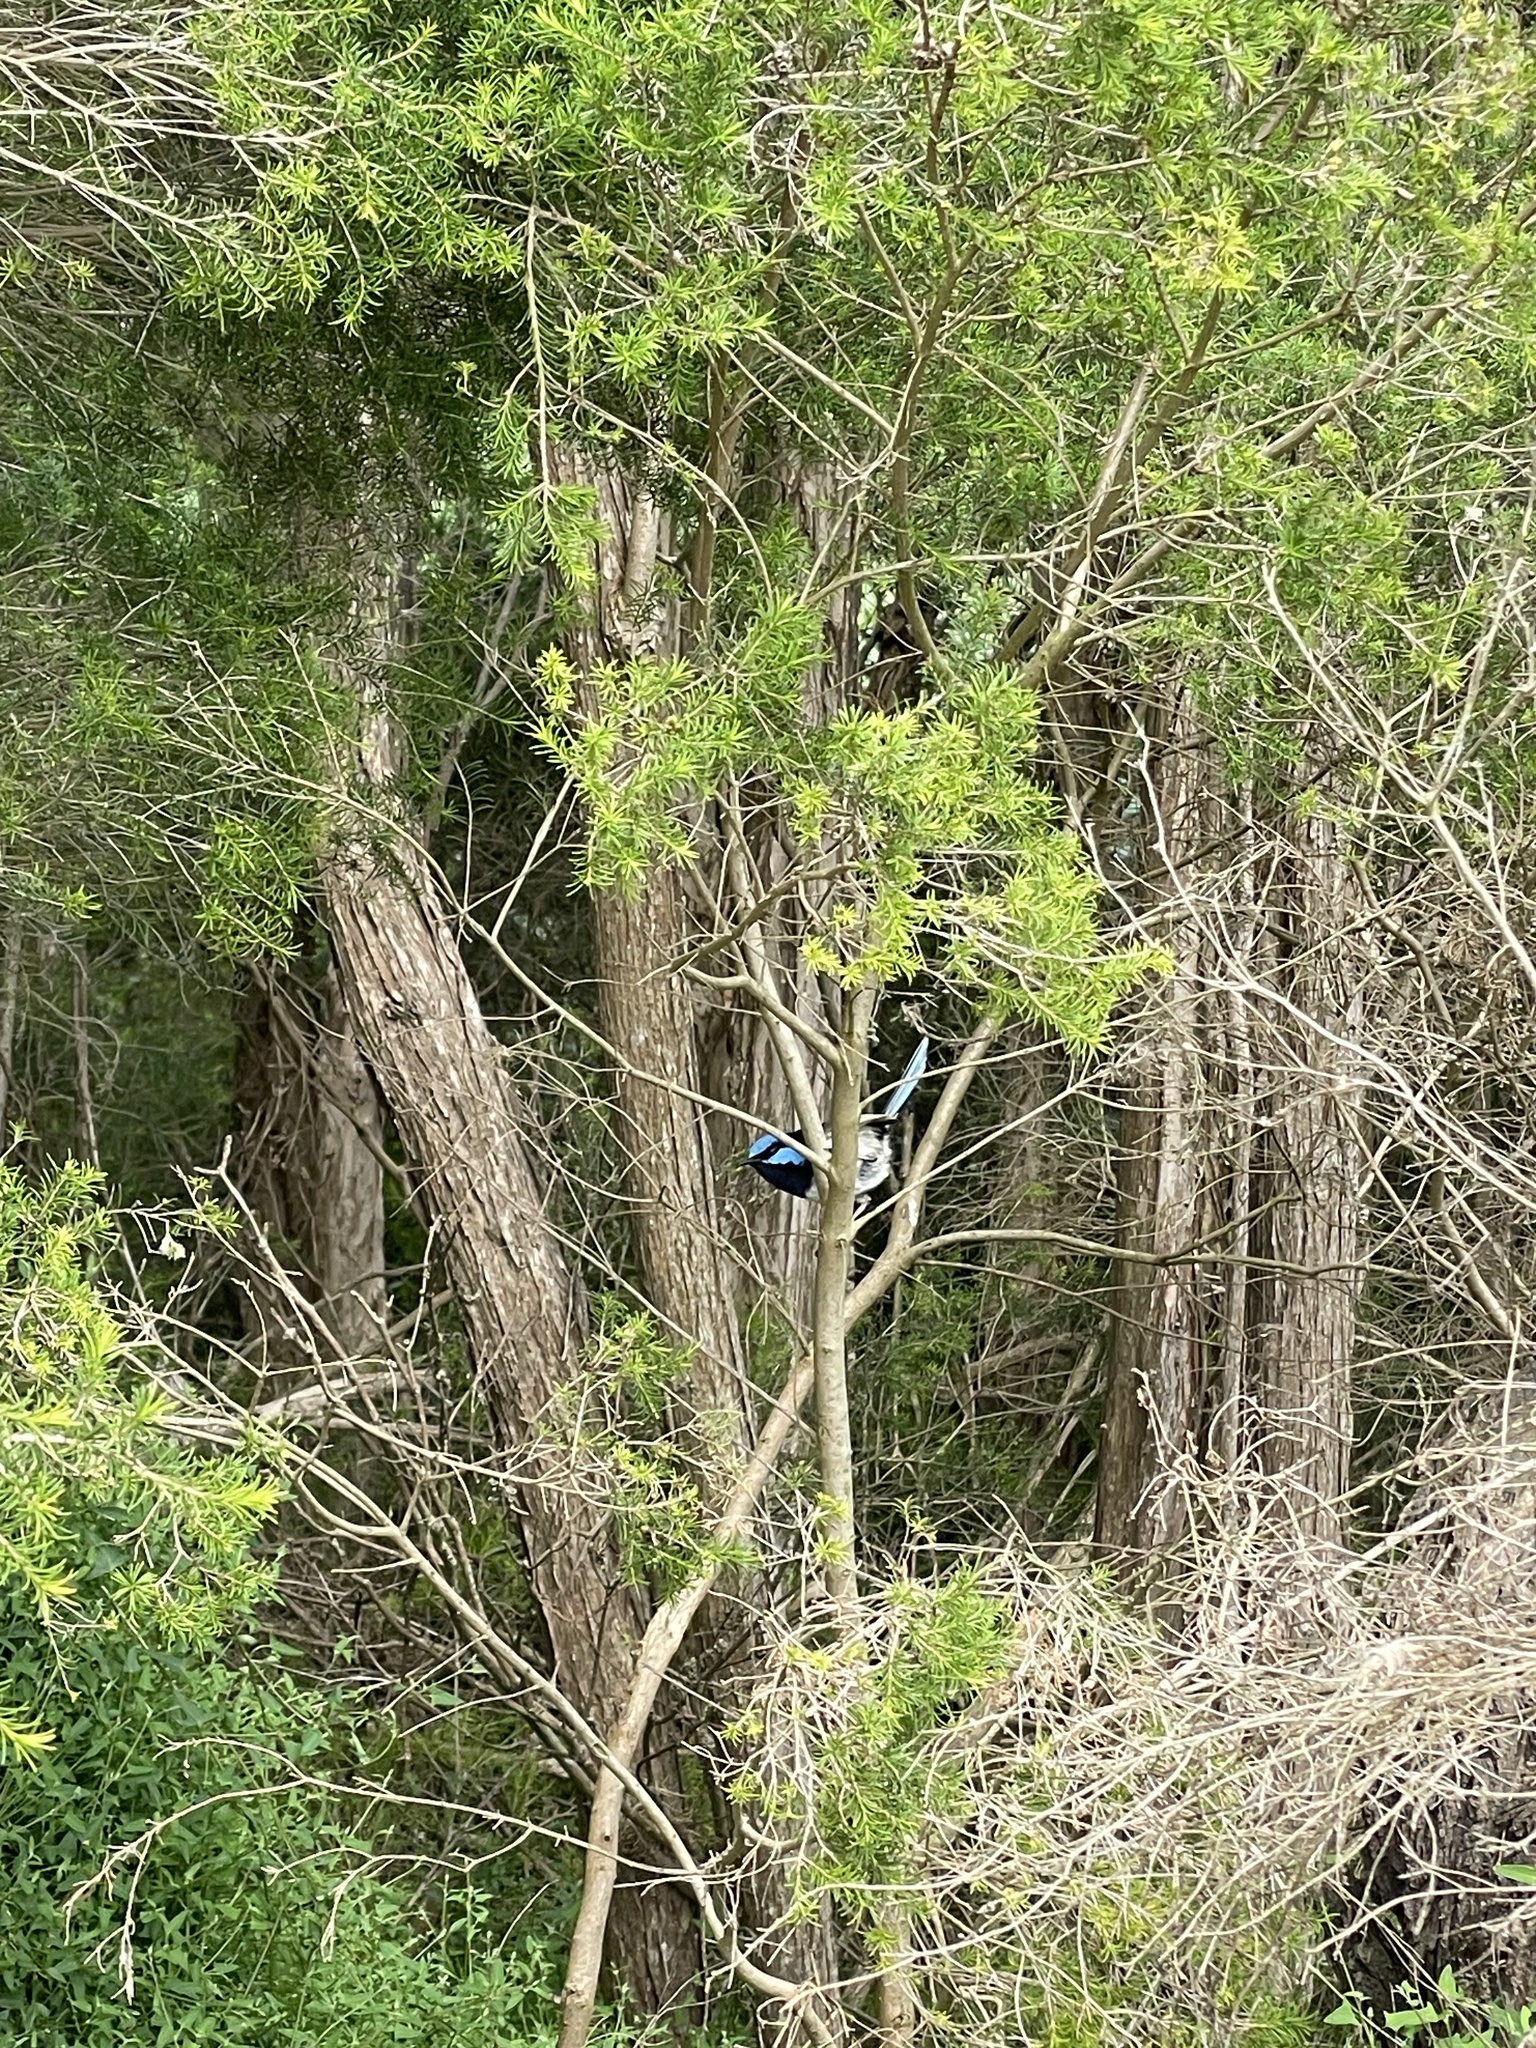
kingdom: Animalia
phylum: Chordata
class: Aves
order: Passeriformes
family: Maluridae
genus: Malurus
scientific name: Malurus cyaneus
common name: Superb fairywren
